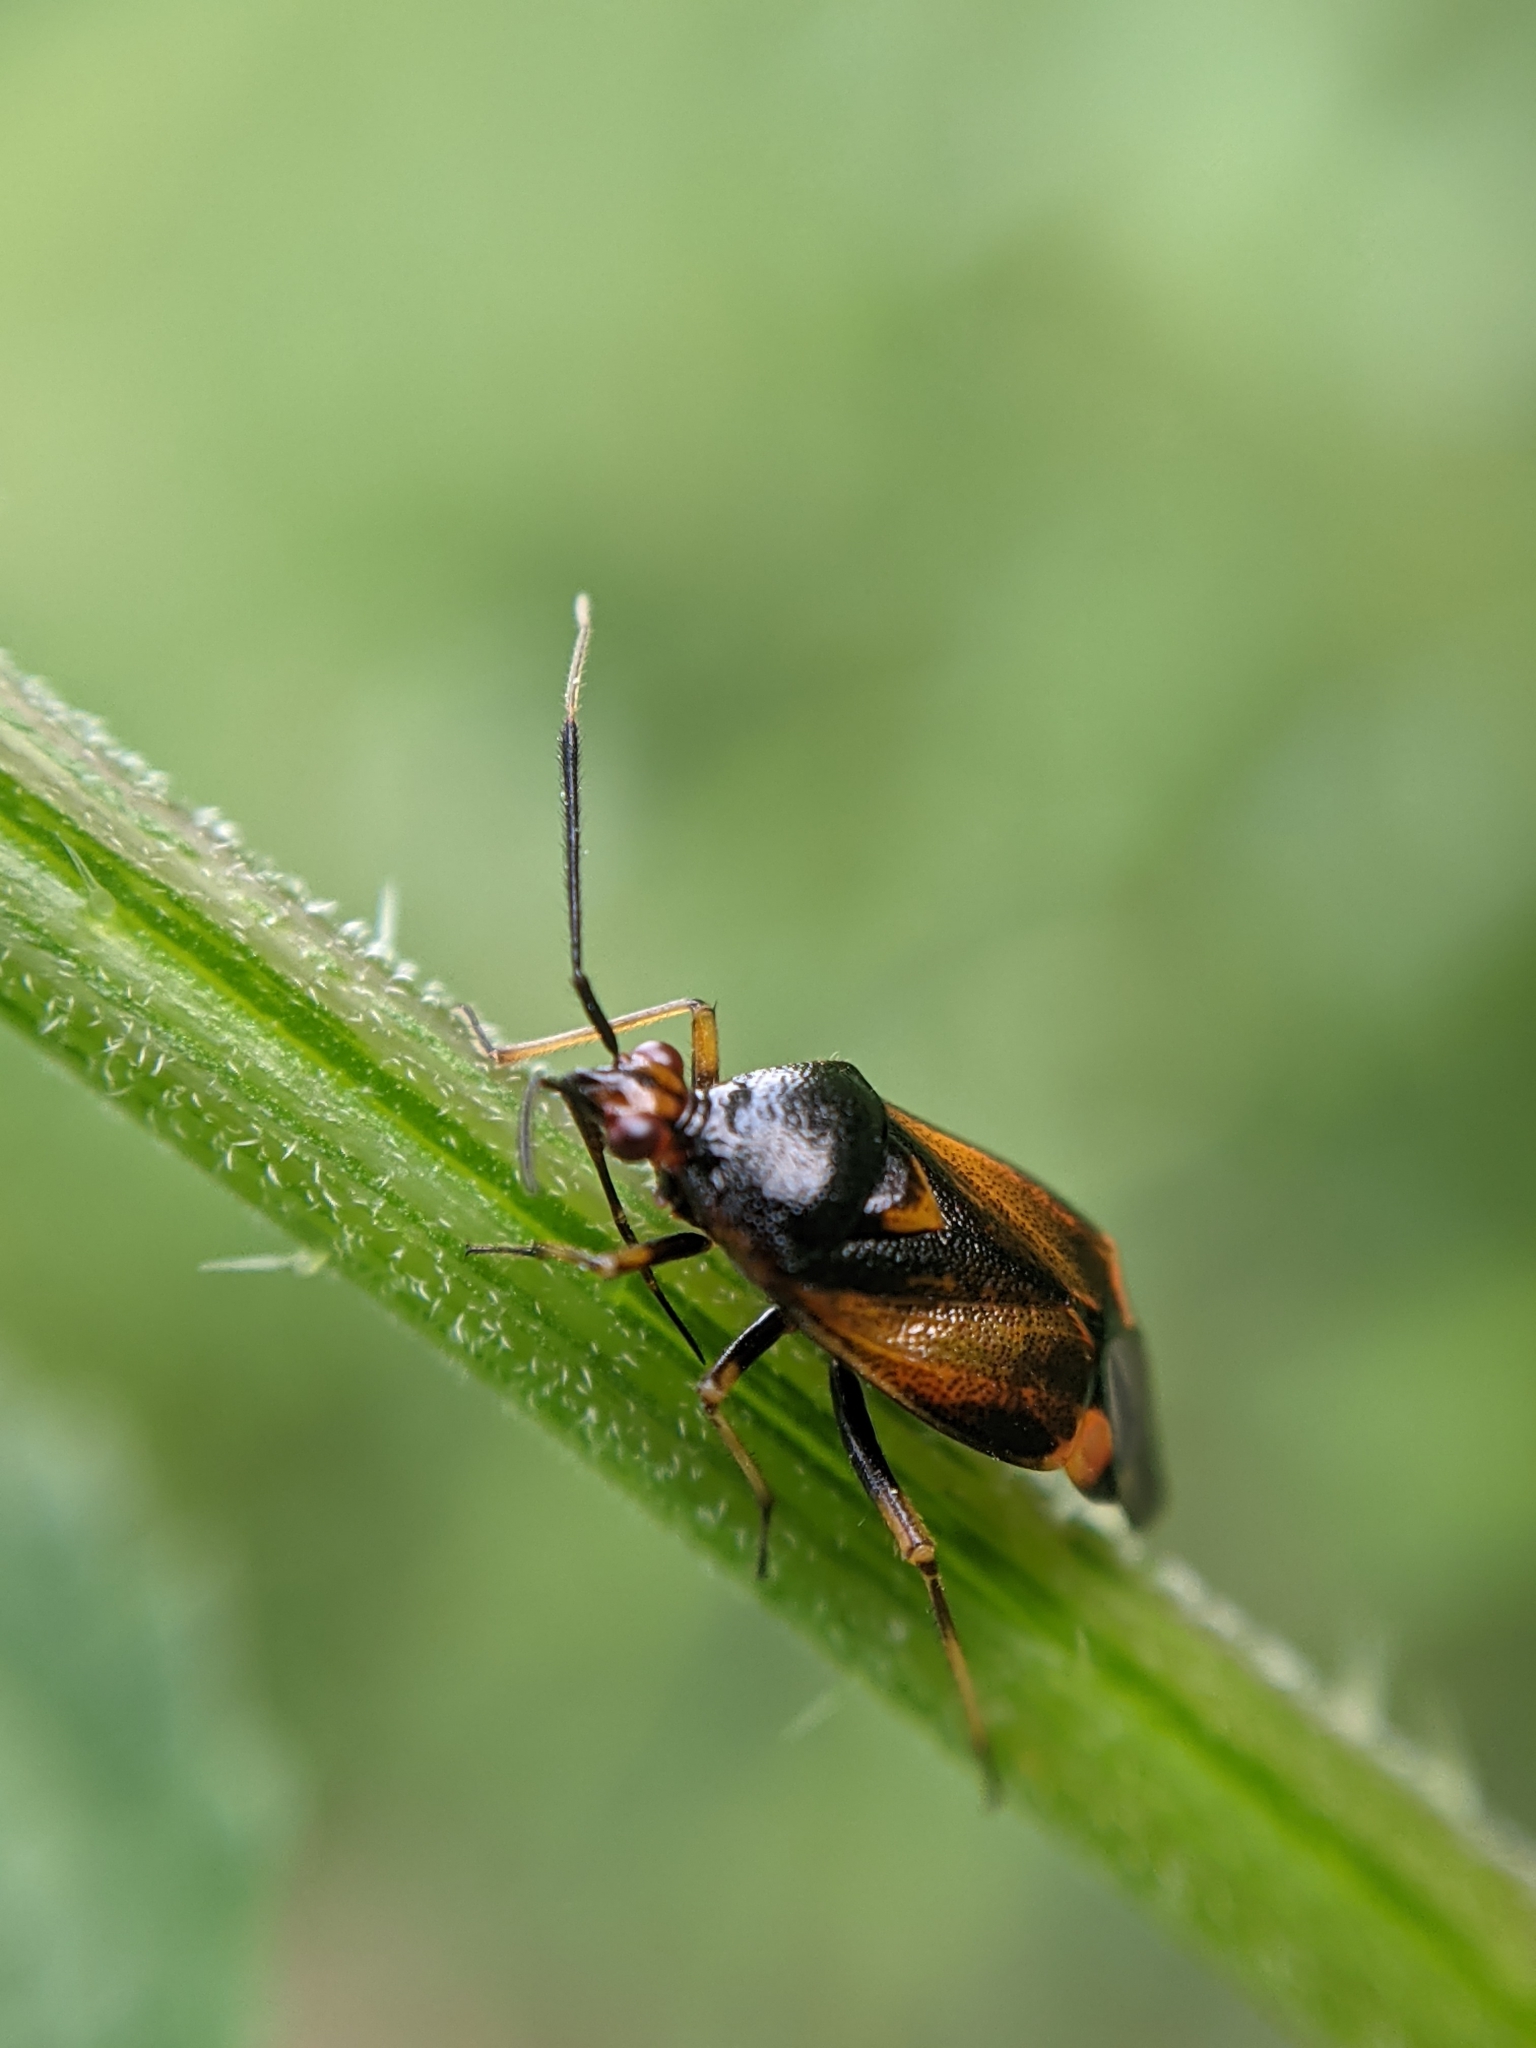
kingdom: Animalia
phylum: Arthropoda
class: Insecta
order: Hemiptera
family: Miridae
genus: Deraeocoris
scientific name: Deraeocoris ruber
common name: Plant bug
